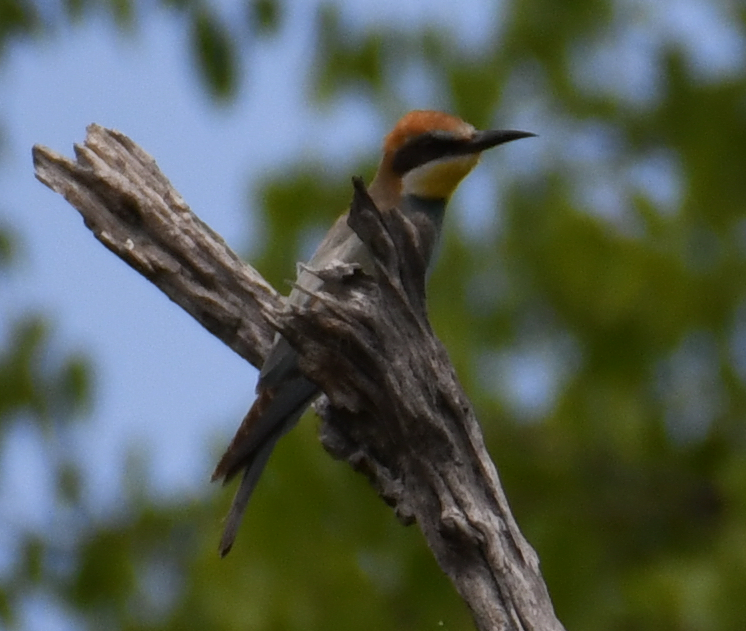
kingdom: Animalia
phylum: Chordata
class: Aves
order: Coraciiformes
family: Meropidae
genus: Merops
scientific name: Merops apiaster
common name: European bee-eater
